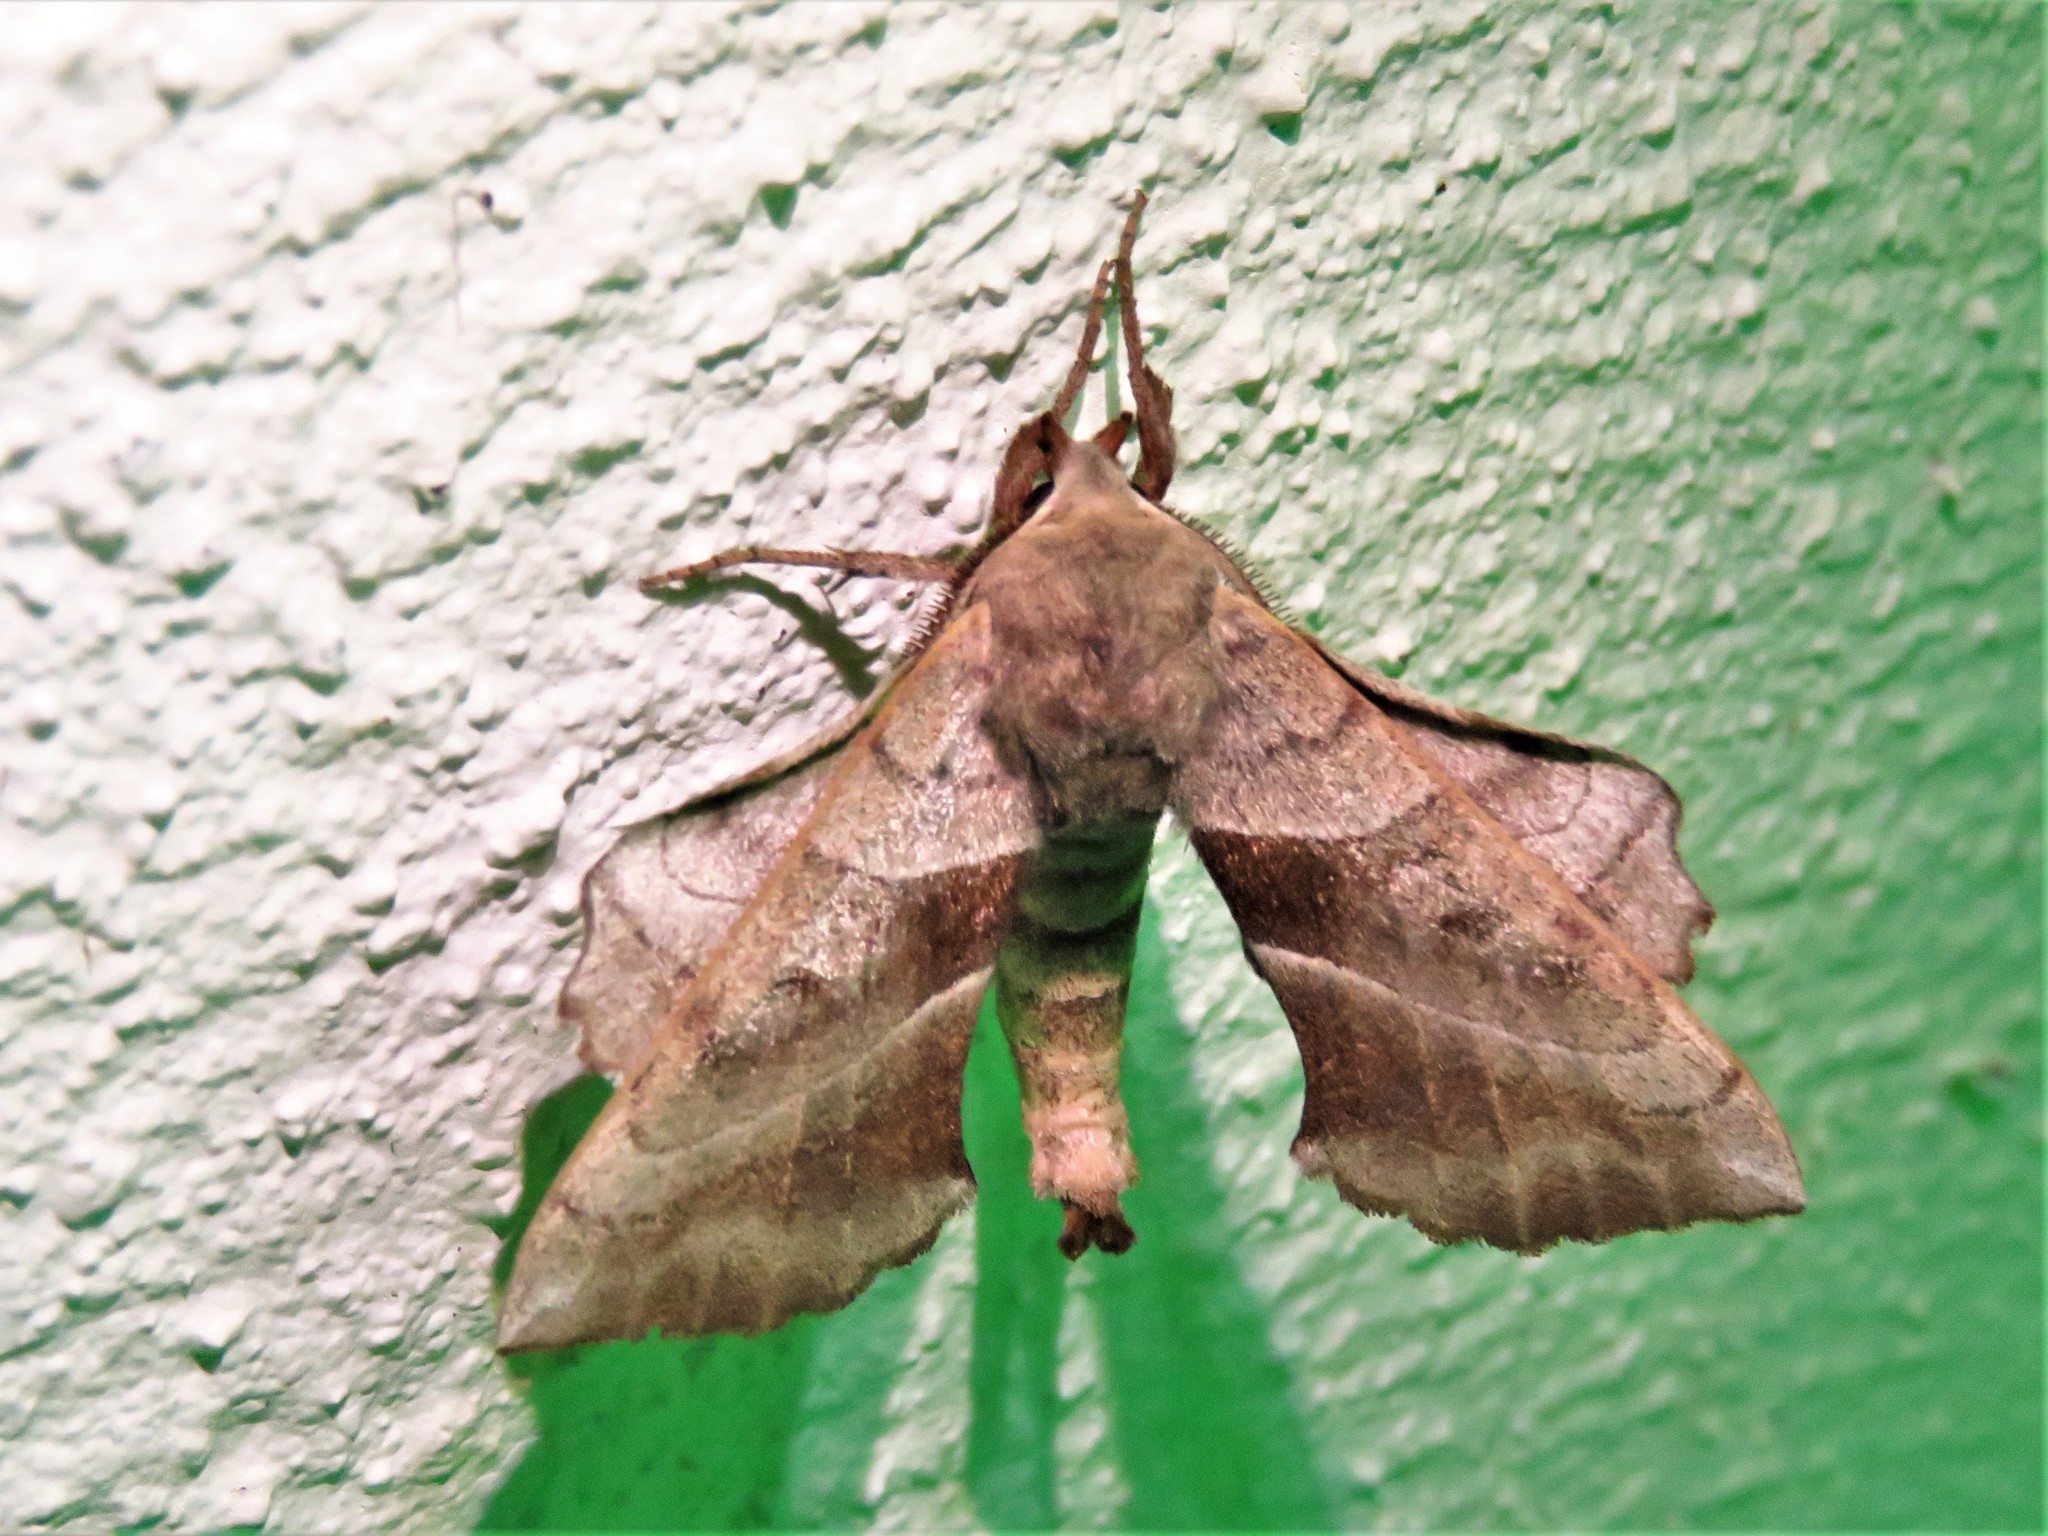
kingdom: Animalia
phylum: Arthropoda
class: Insecta
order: Lepidoptera
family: Sphingidae
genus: Amorpha
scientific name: Amorpha juglandis
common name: Walnut sphinx
